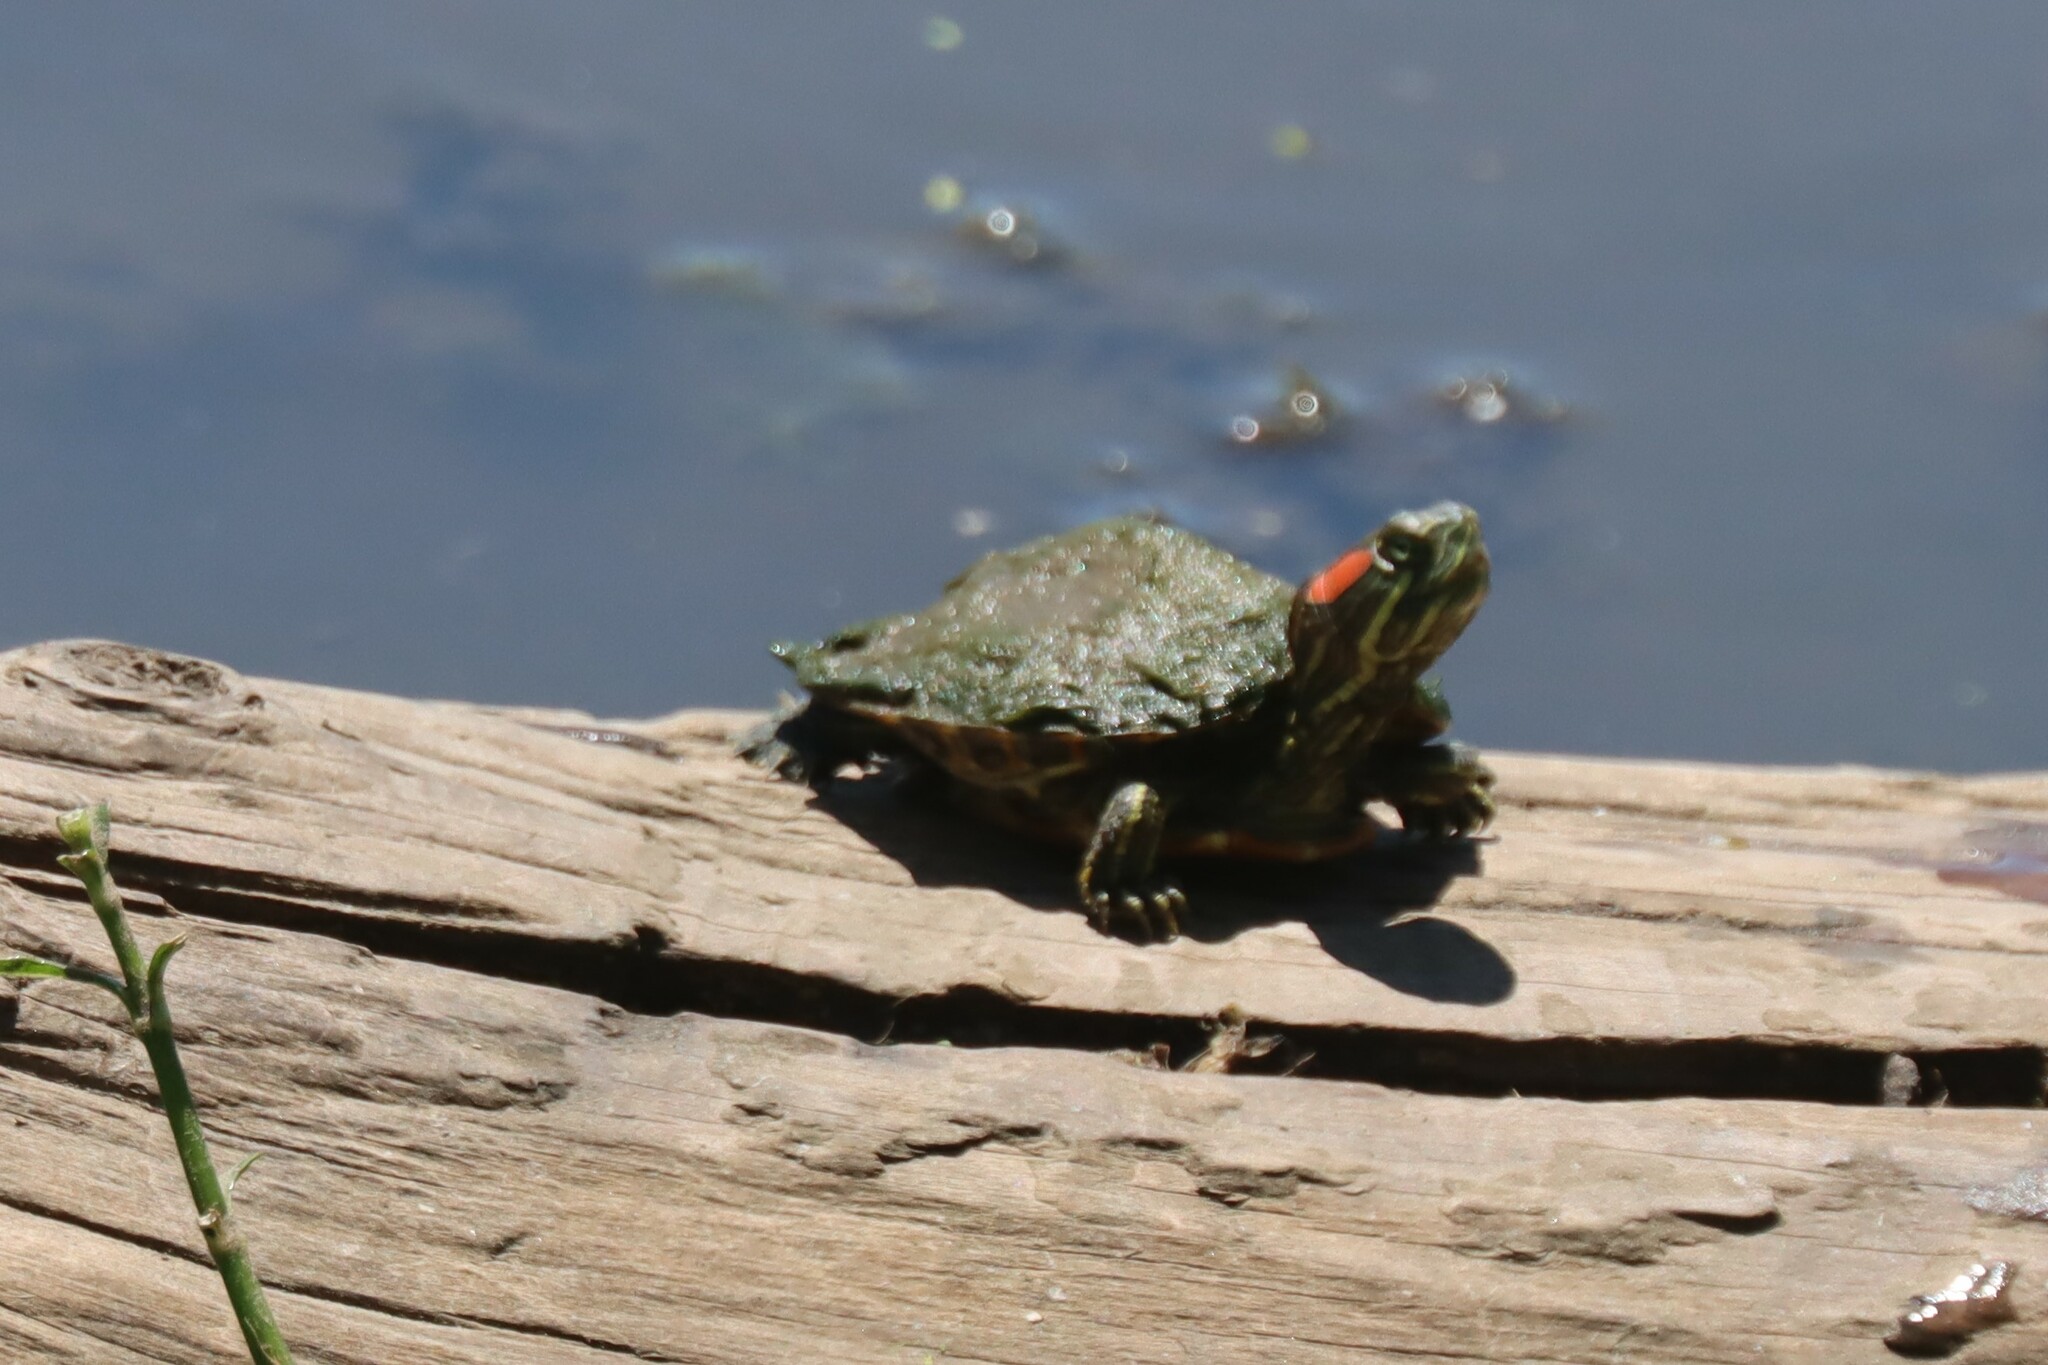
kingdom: Animalia
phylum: Chordata
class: Testudines
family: Emydidae
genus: Trachemys
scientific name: Trachemys scripta
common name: Slider
